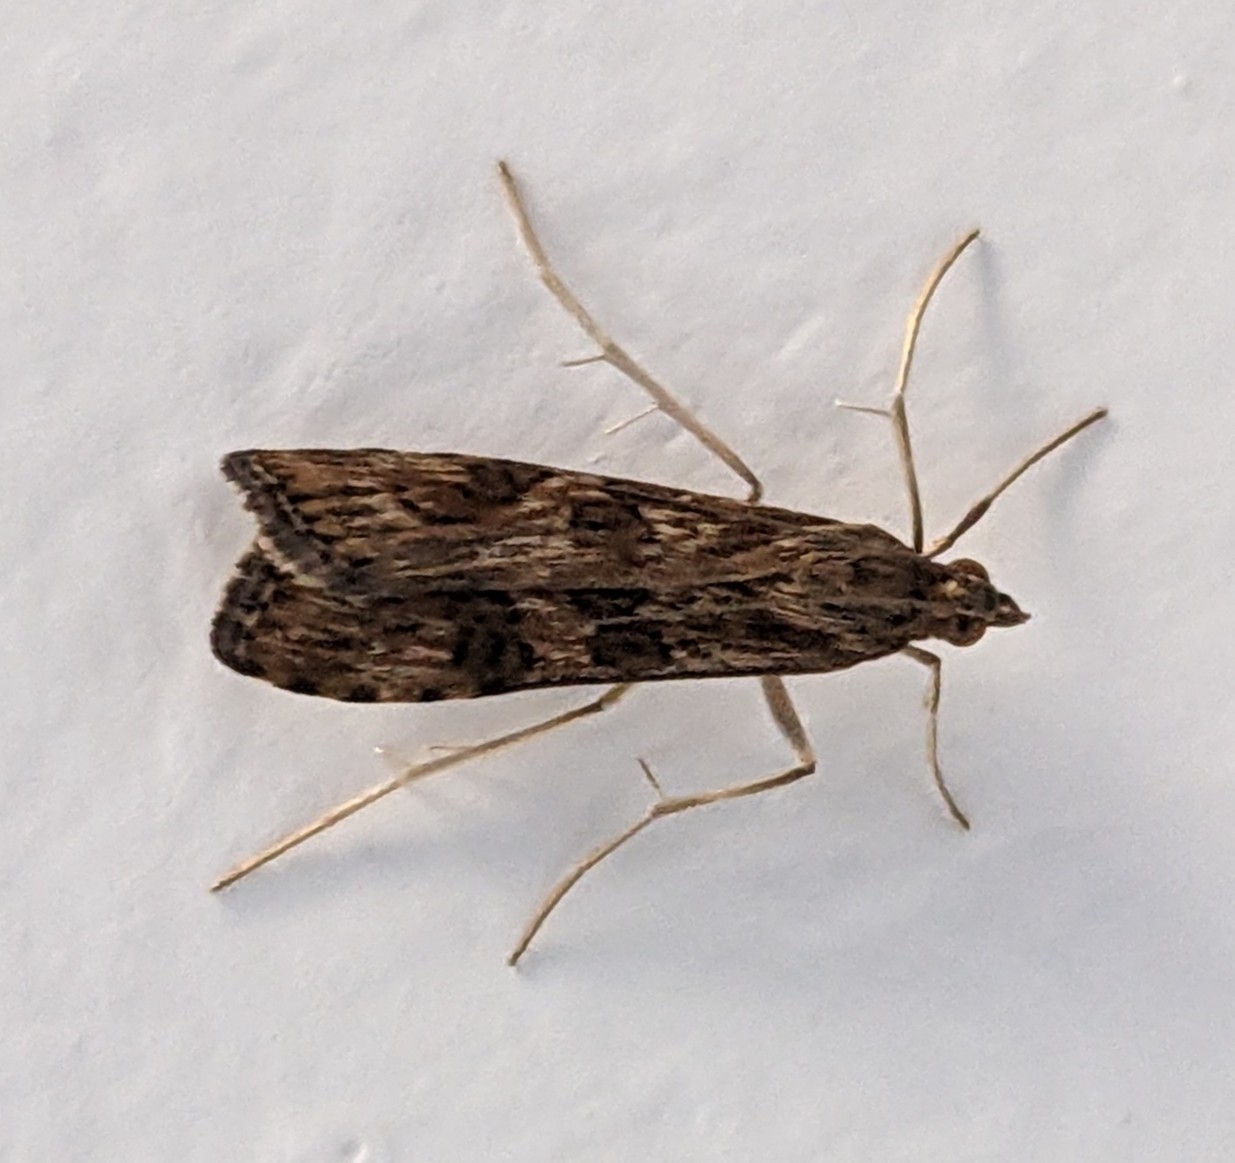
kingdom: Animalia
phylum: Arthropoda
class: Insecta
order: Lepidoptera
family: Crambidae
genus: Nomophila
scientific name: Nomophila noctuella
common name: Rush veneer
